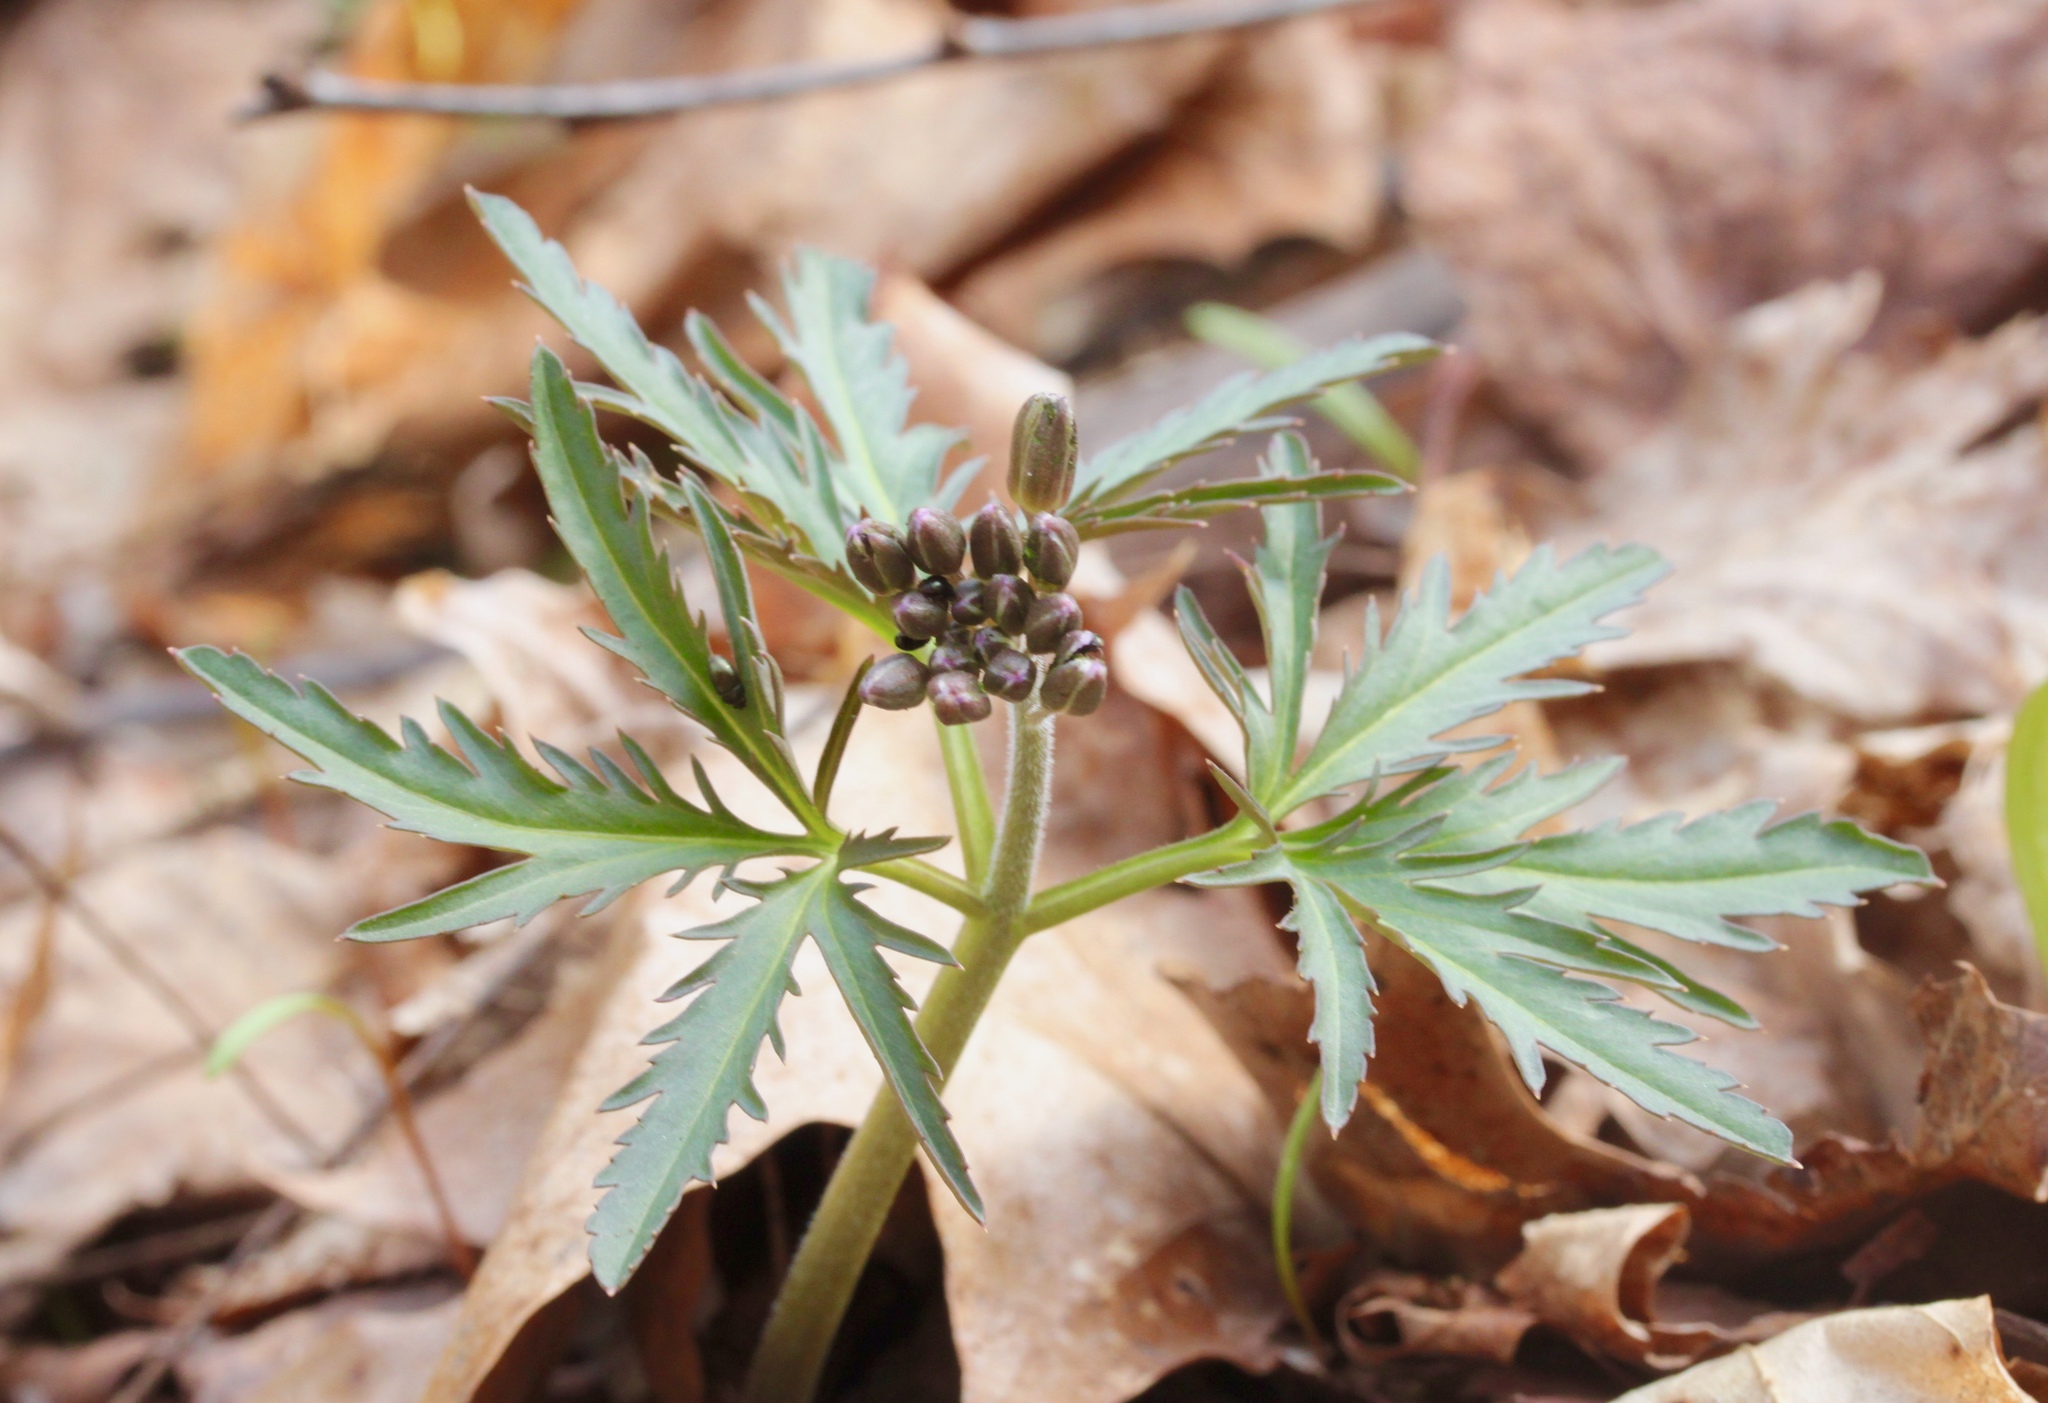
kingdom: Plantae
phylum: Tracheophyta
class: Magnoliopsida
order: Brassicales
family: Brassicaceae
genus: Cardamine
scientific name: Cardamine concatenata
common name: Cut-leaf toothcup
